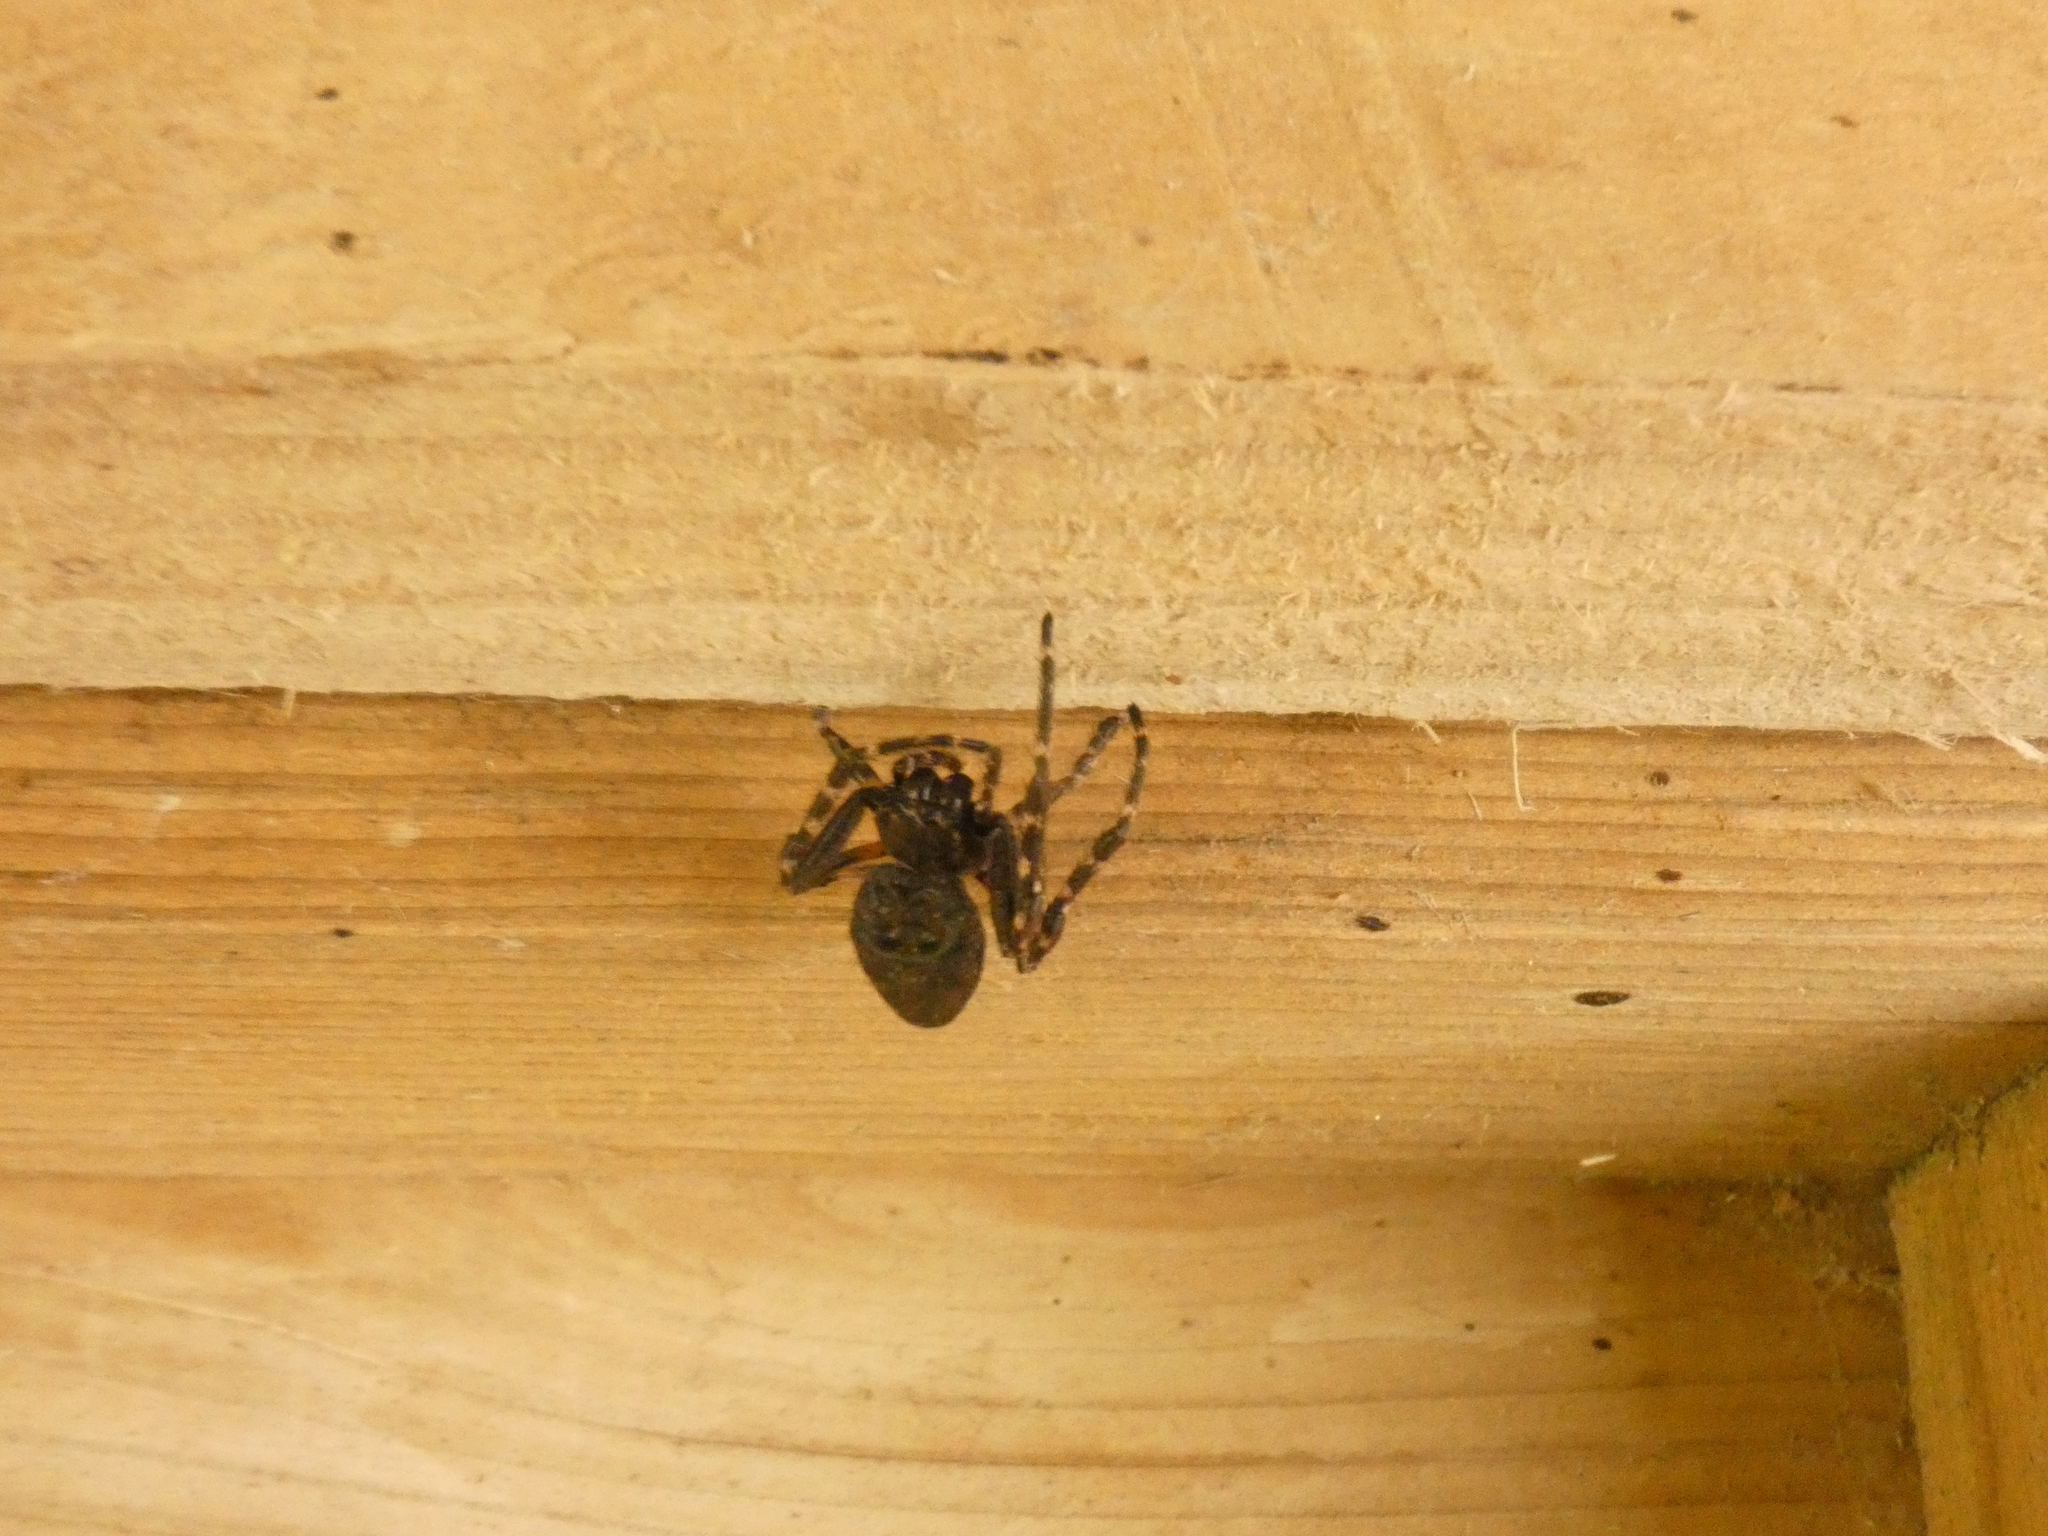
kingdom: Animalia
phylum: Arthropoda
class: Arachnida
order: Araneae
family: Araneidae
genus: Nuctenea
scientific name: Nuctenea umbratica
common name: Toad spider
